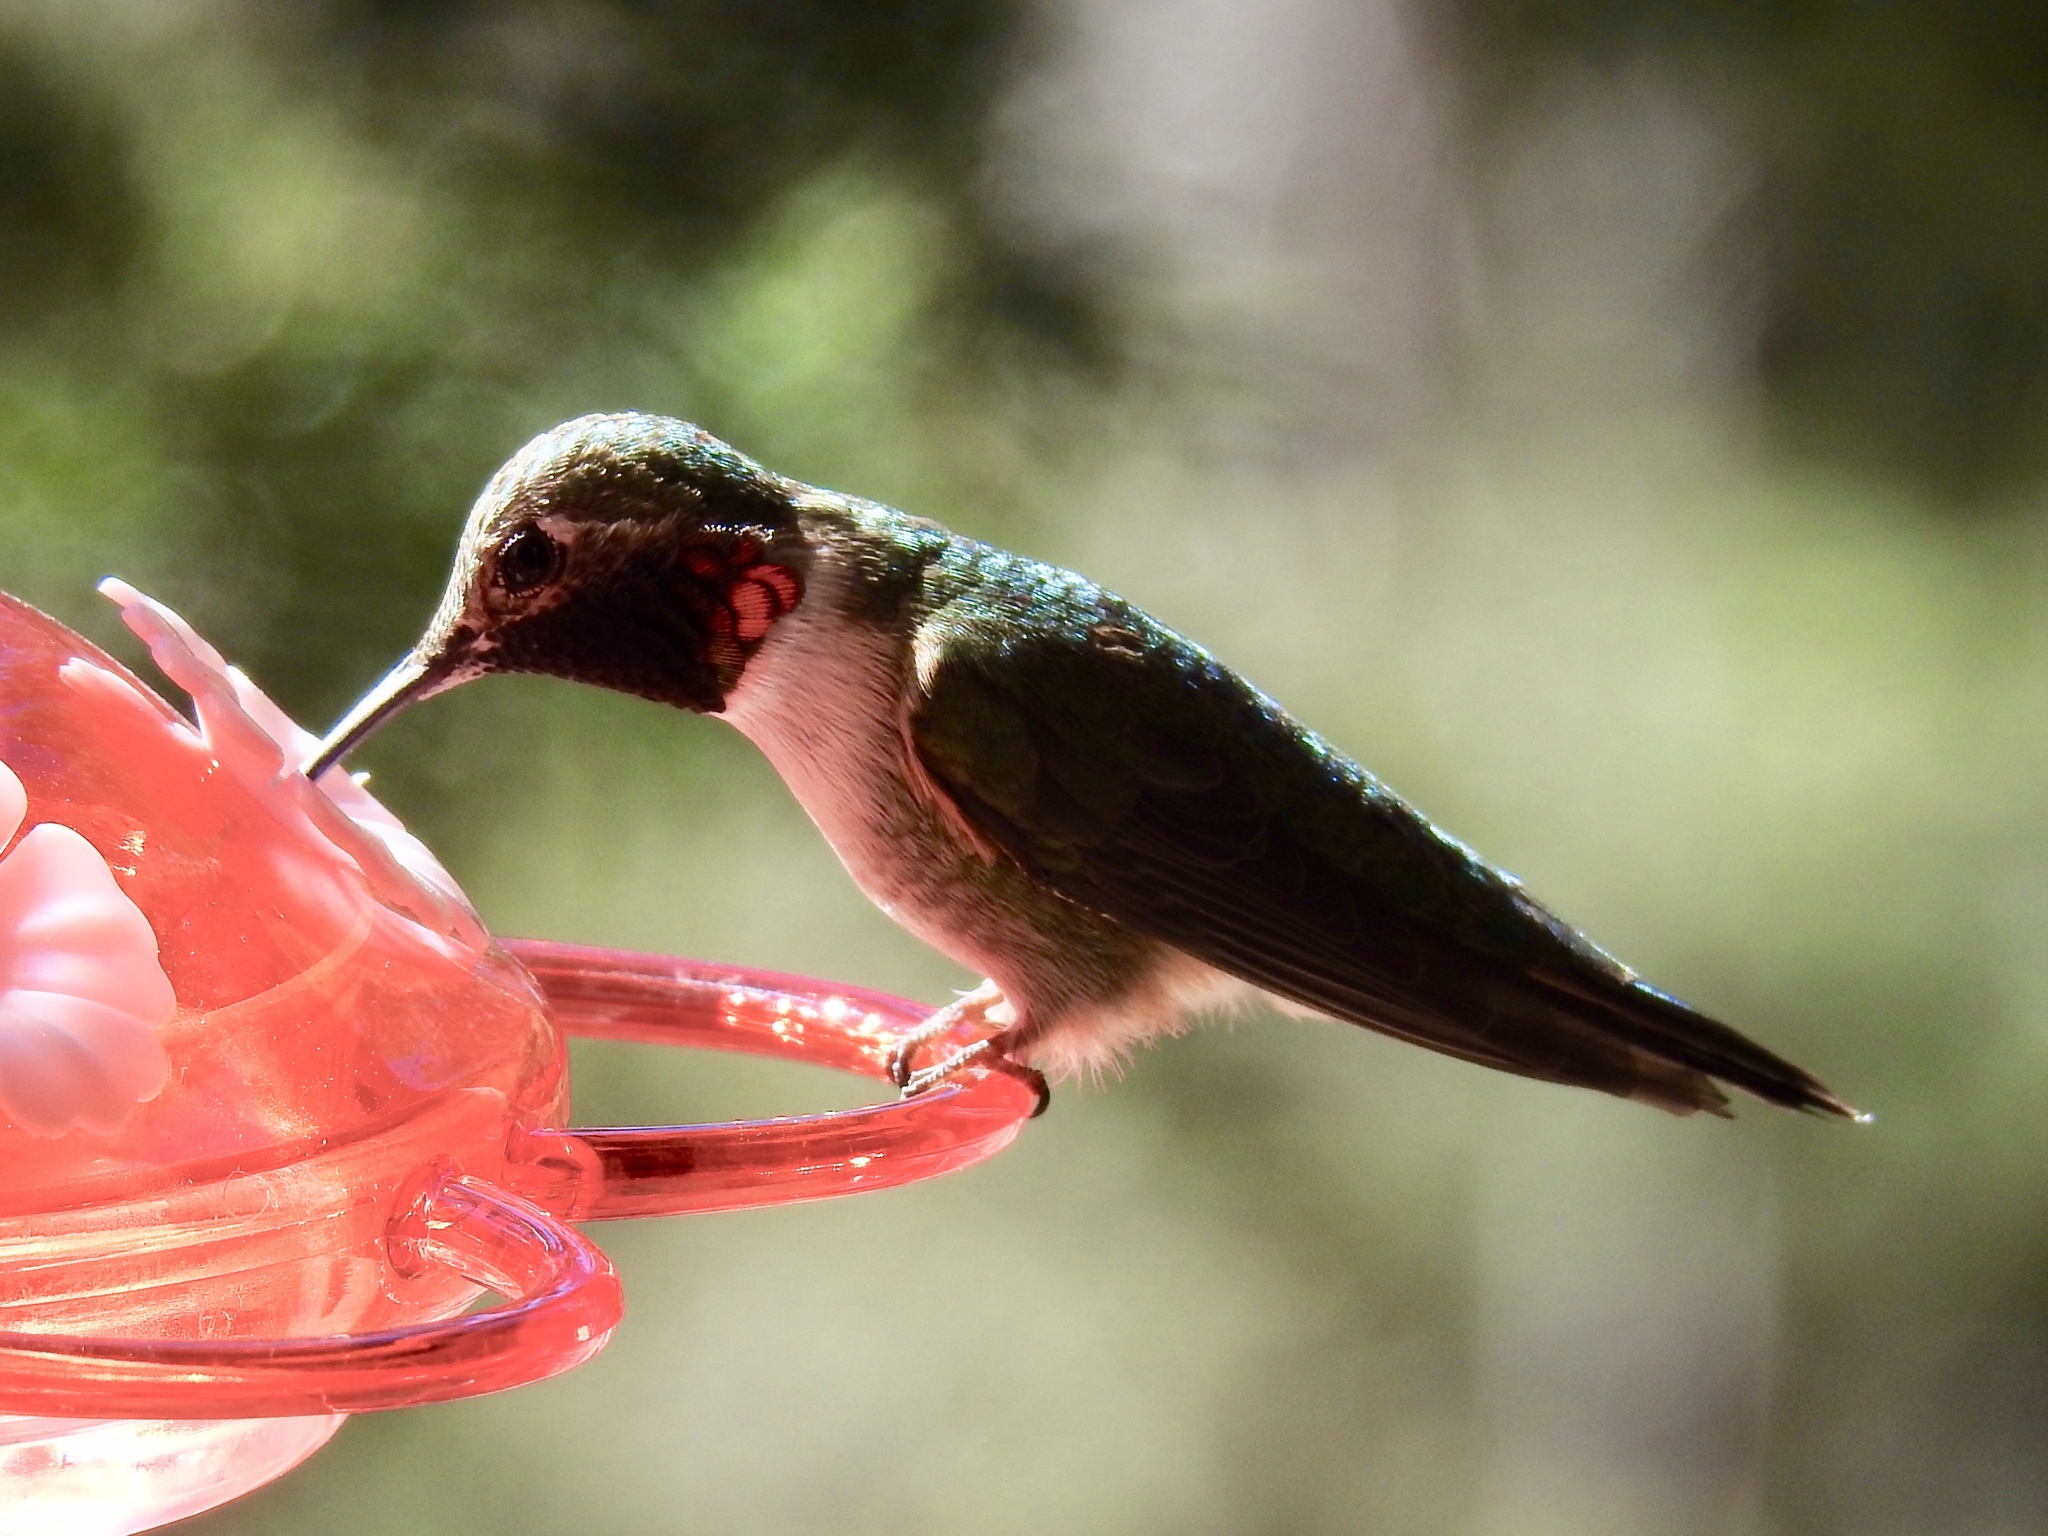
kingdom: Animalia
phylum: Chordata
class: Aves
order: Apodiformes
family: Trochilidae
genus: Selasphorus
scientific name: Selasphorus platycercus
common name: Broad-tailed hummingbird
